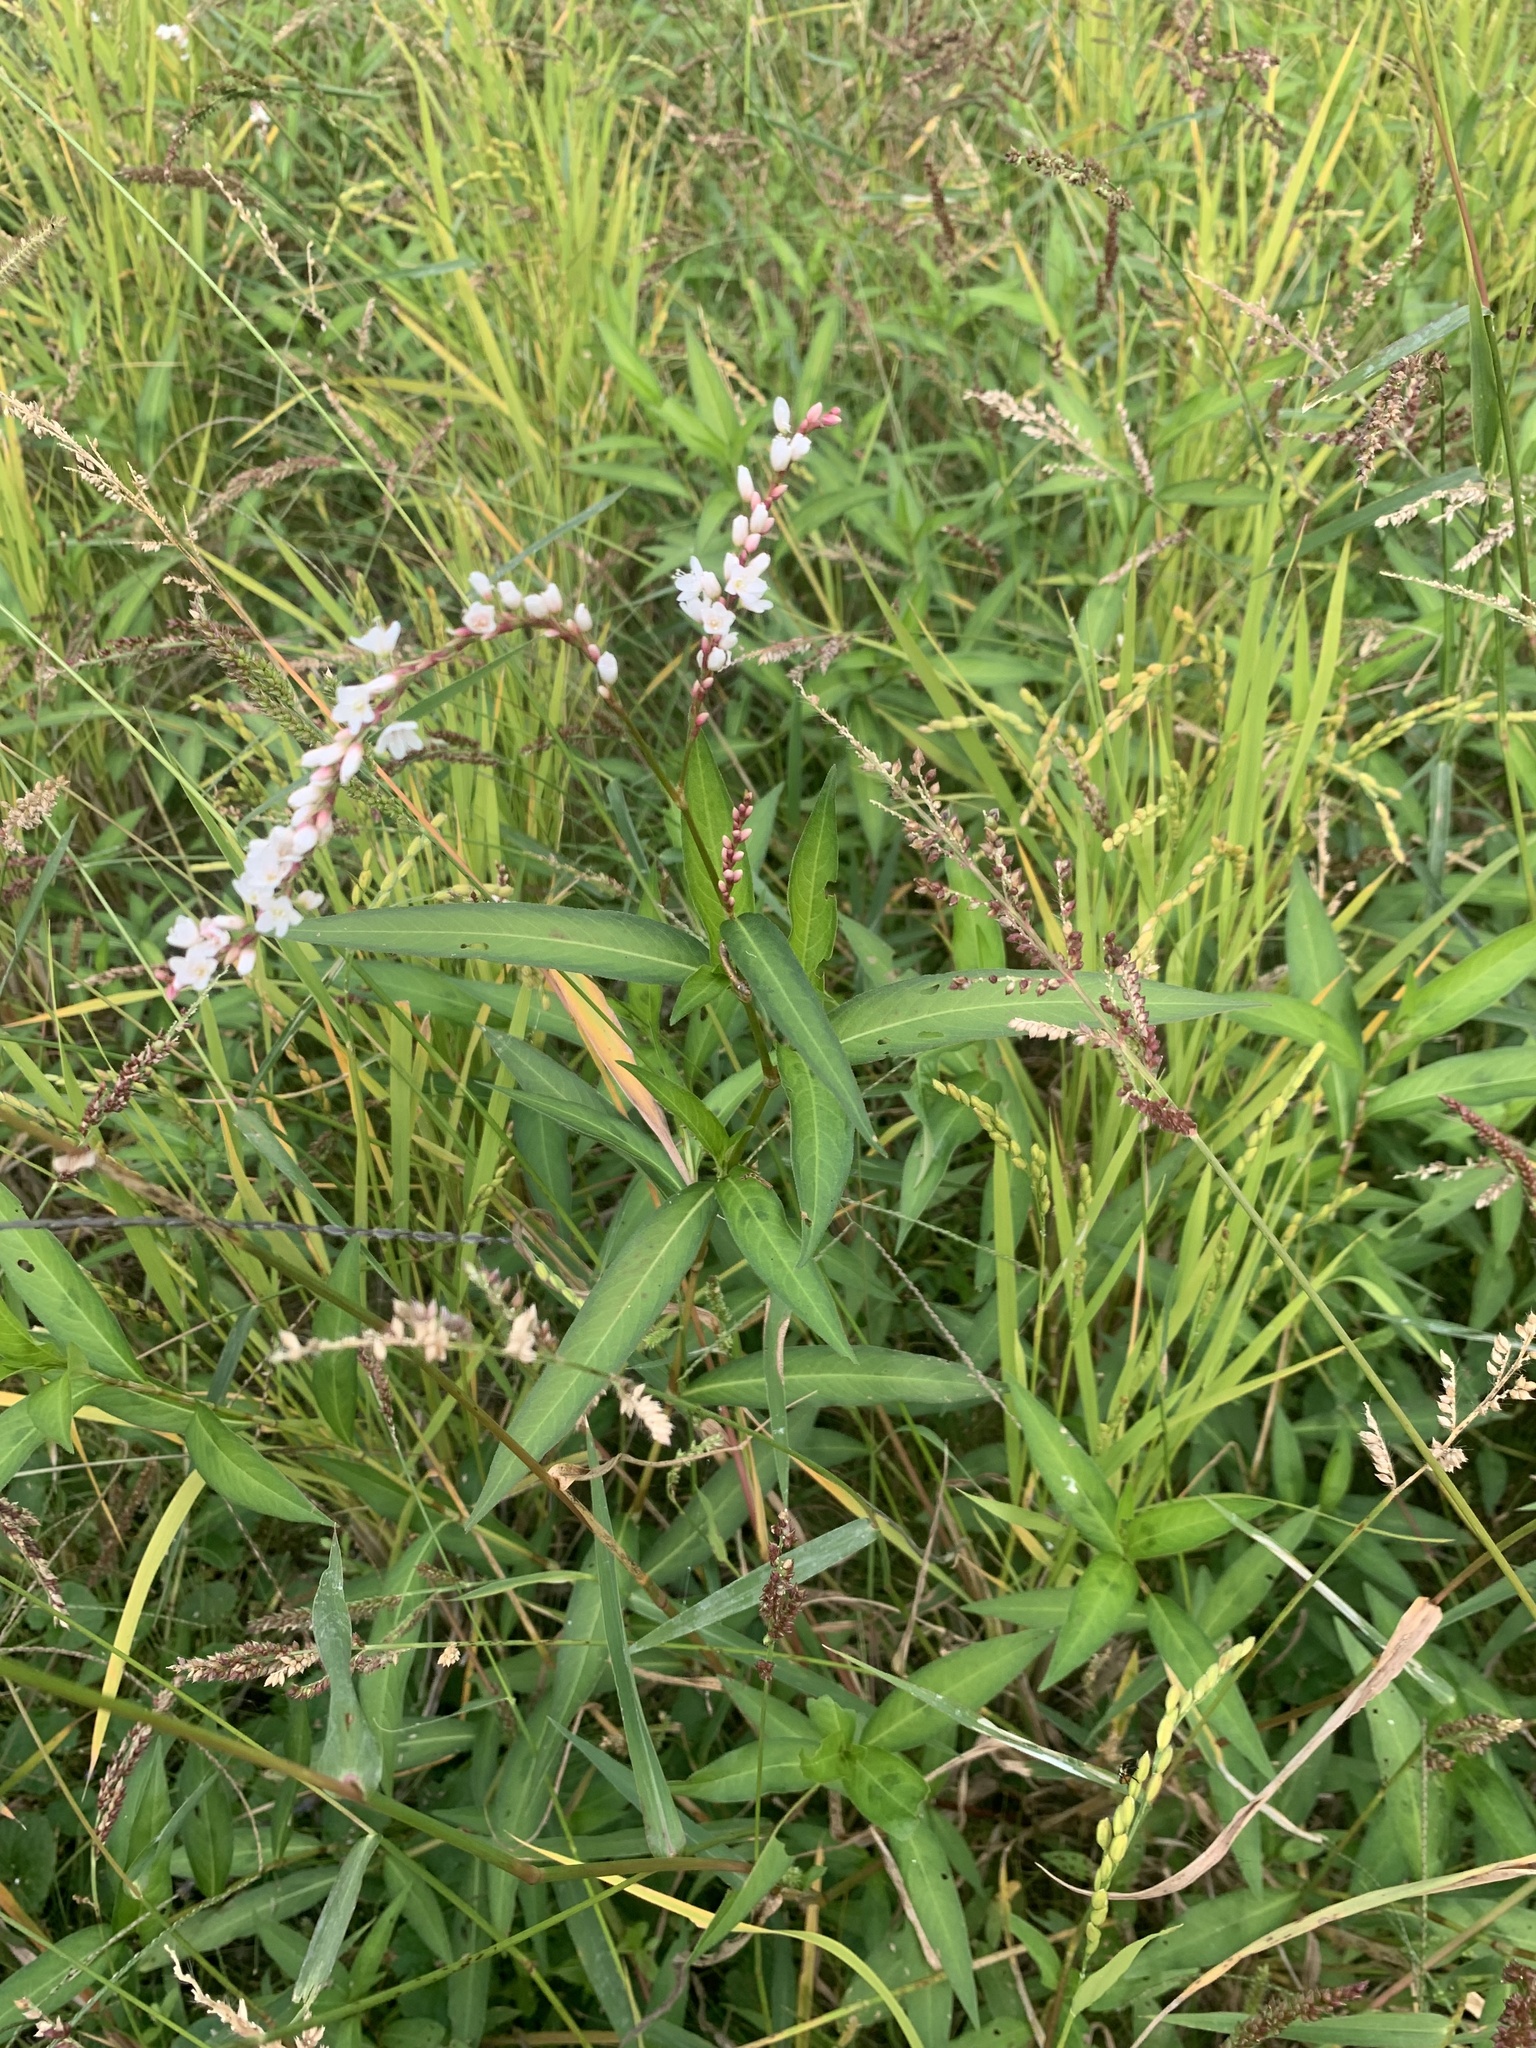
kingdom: Plantae
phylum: Tracheophyta
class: Magnoliopsida
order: Caryophyllales
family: Polygonaceae
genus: Persicaria
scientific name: Persicaria japonica
